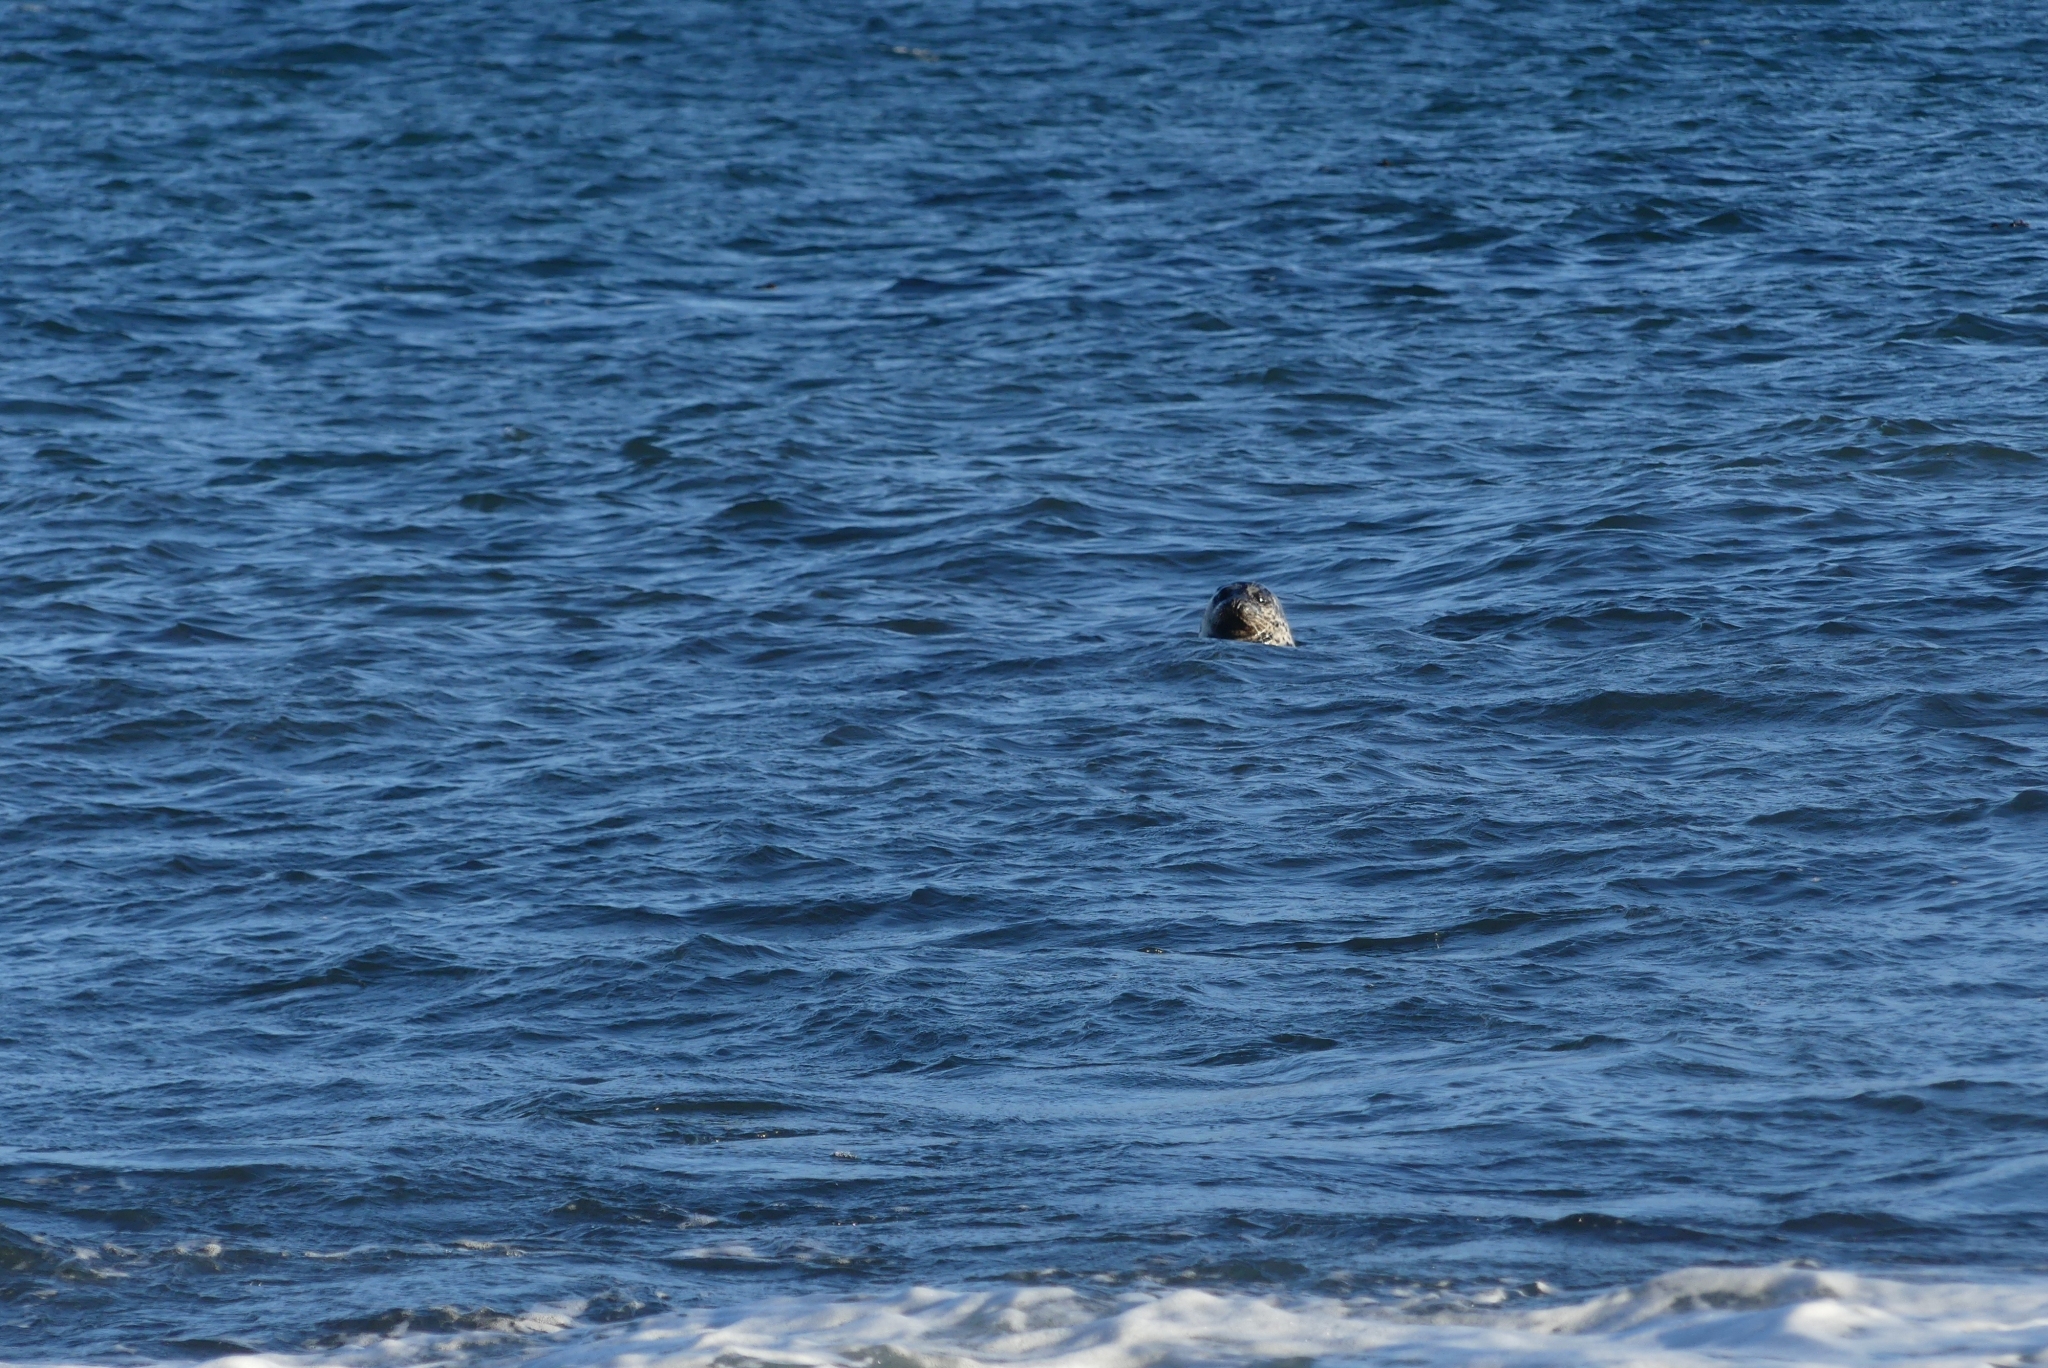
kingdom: Animalia
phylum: Chordata
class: Mammalia
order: Carnivora
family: Phocidae
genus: Phoca
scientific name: Phoca vitulina
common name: Harbor seal
